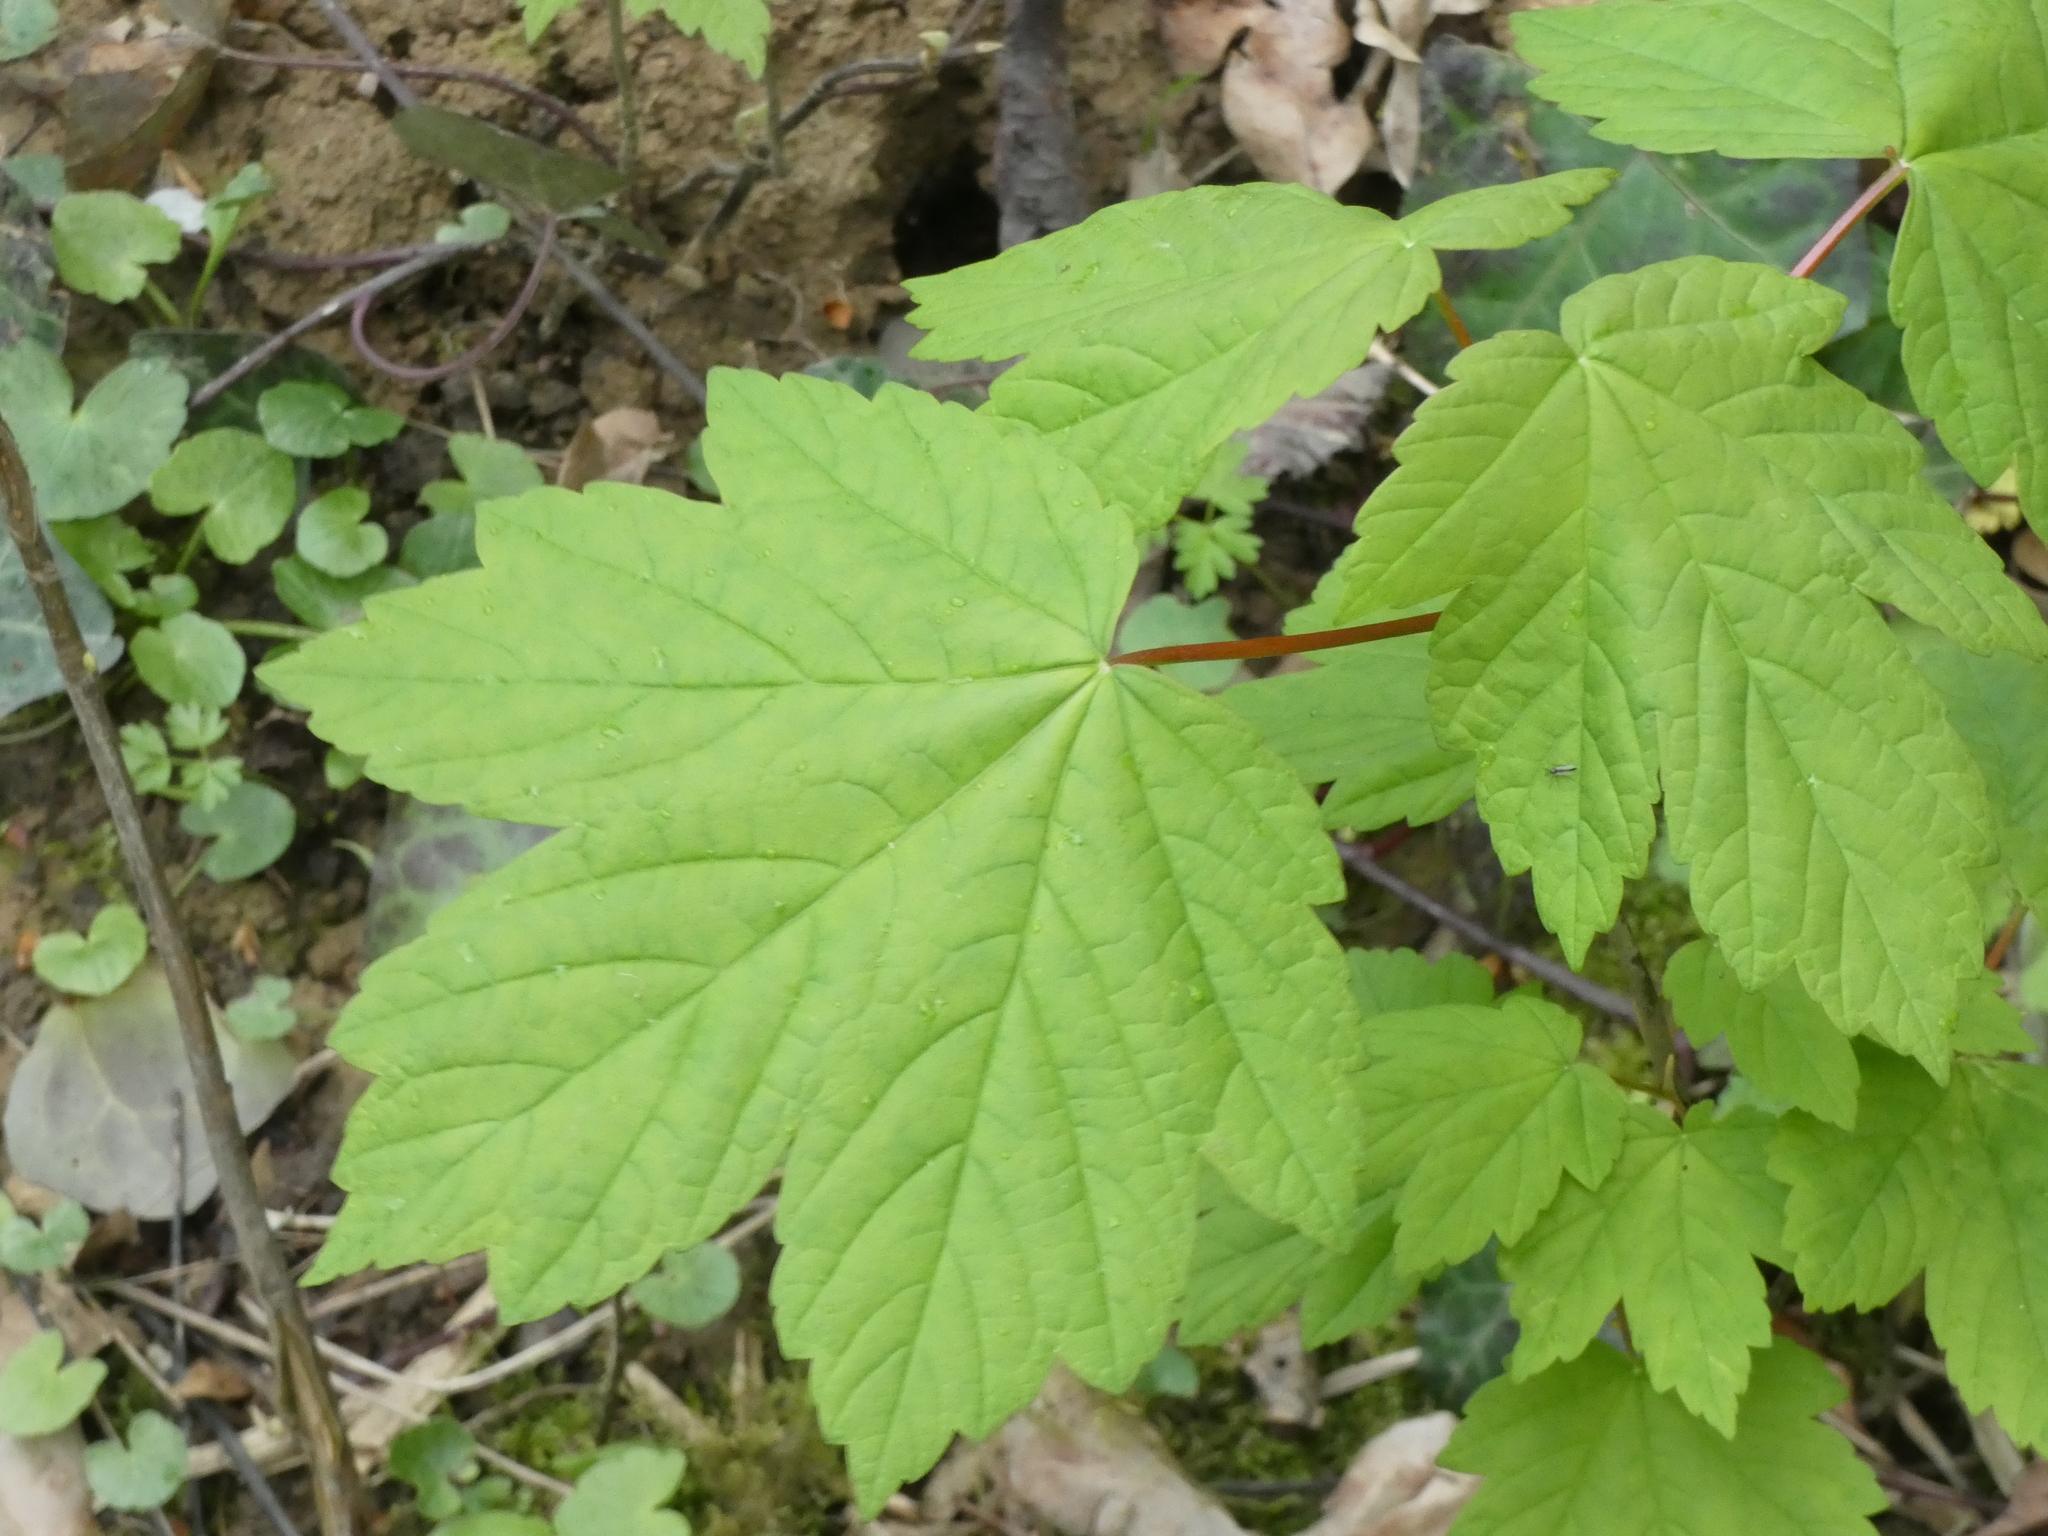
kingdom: Plantae
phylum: Tracheophyta
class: Magnoliopsida
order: Sapindales
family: Sapindaceae
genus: Acer
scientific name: Acer pseudoplatanus
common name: Sycamore
